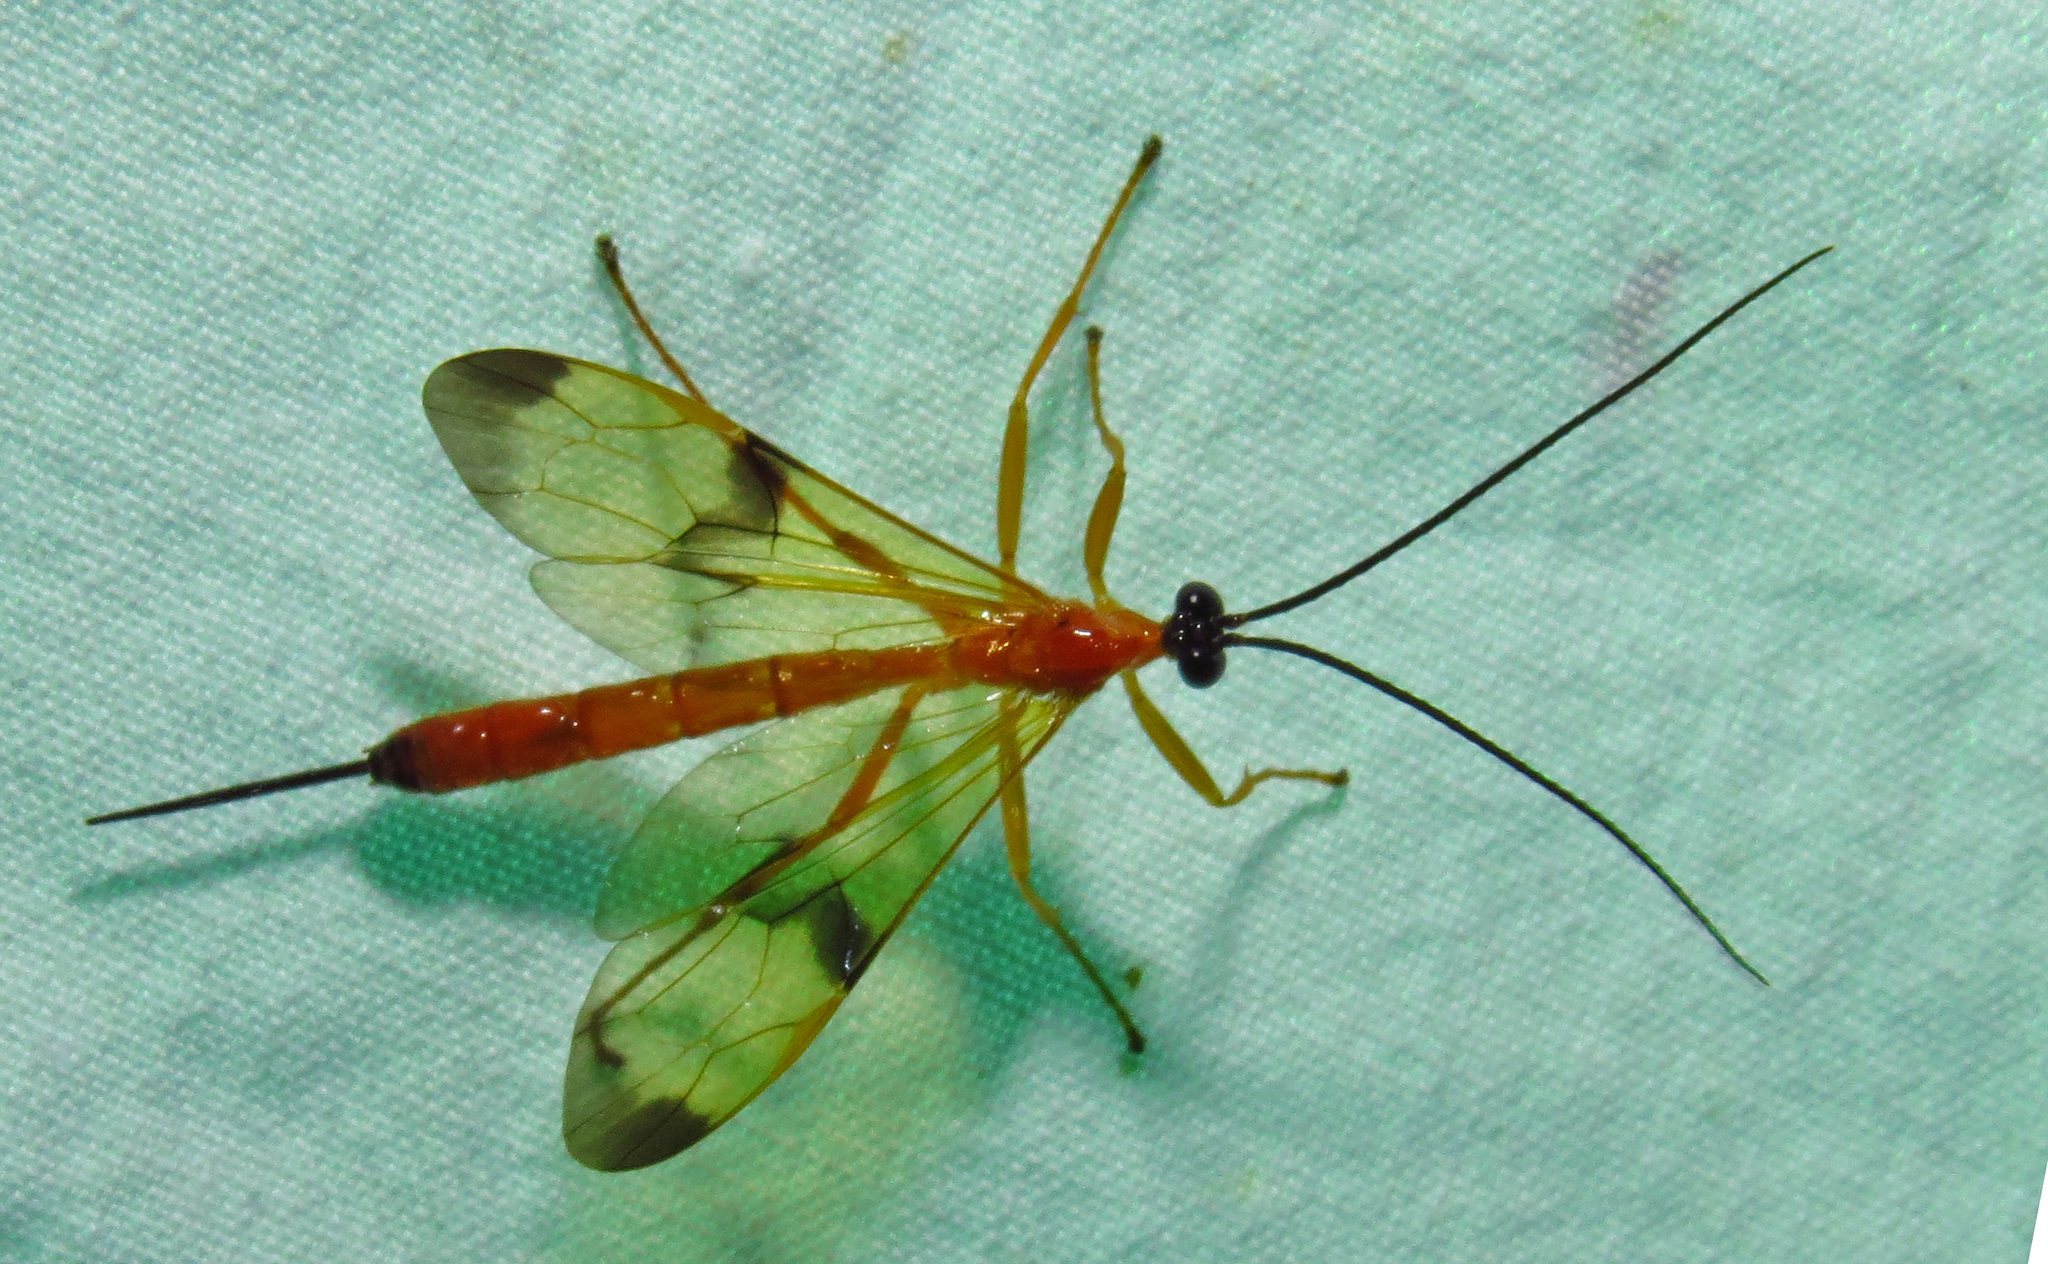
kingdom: Animalia
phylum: Arthropoda
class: Insecta
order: Hymenoptera
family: Ichneumonidae
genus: Acrotaphus
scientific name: Acrotaphus wiltii
